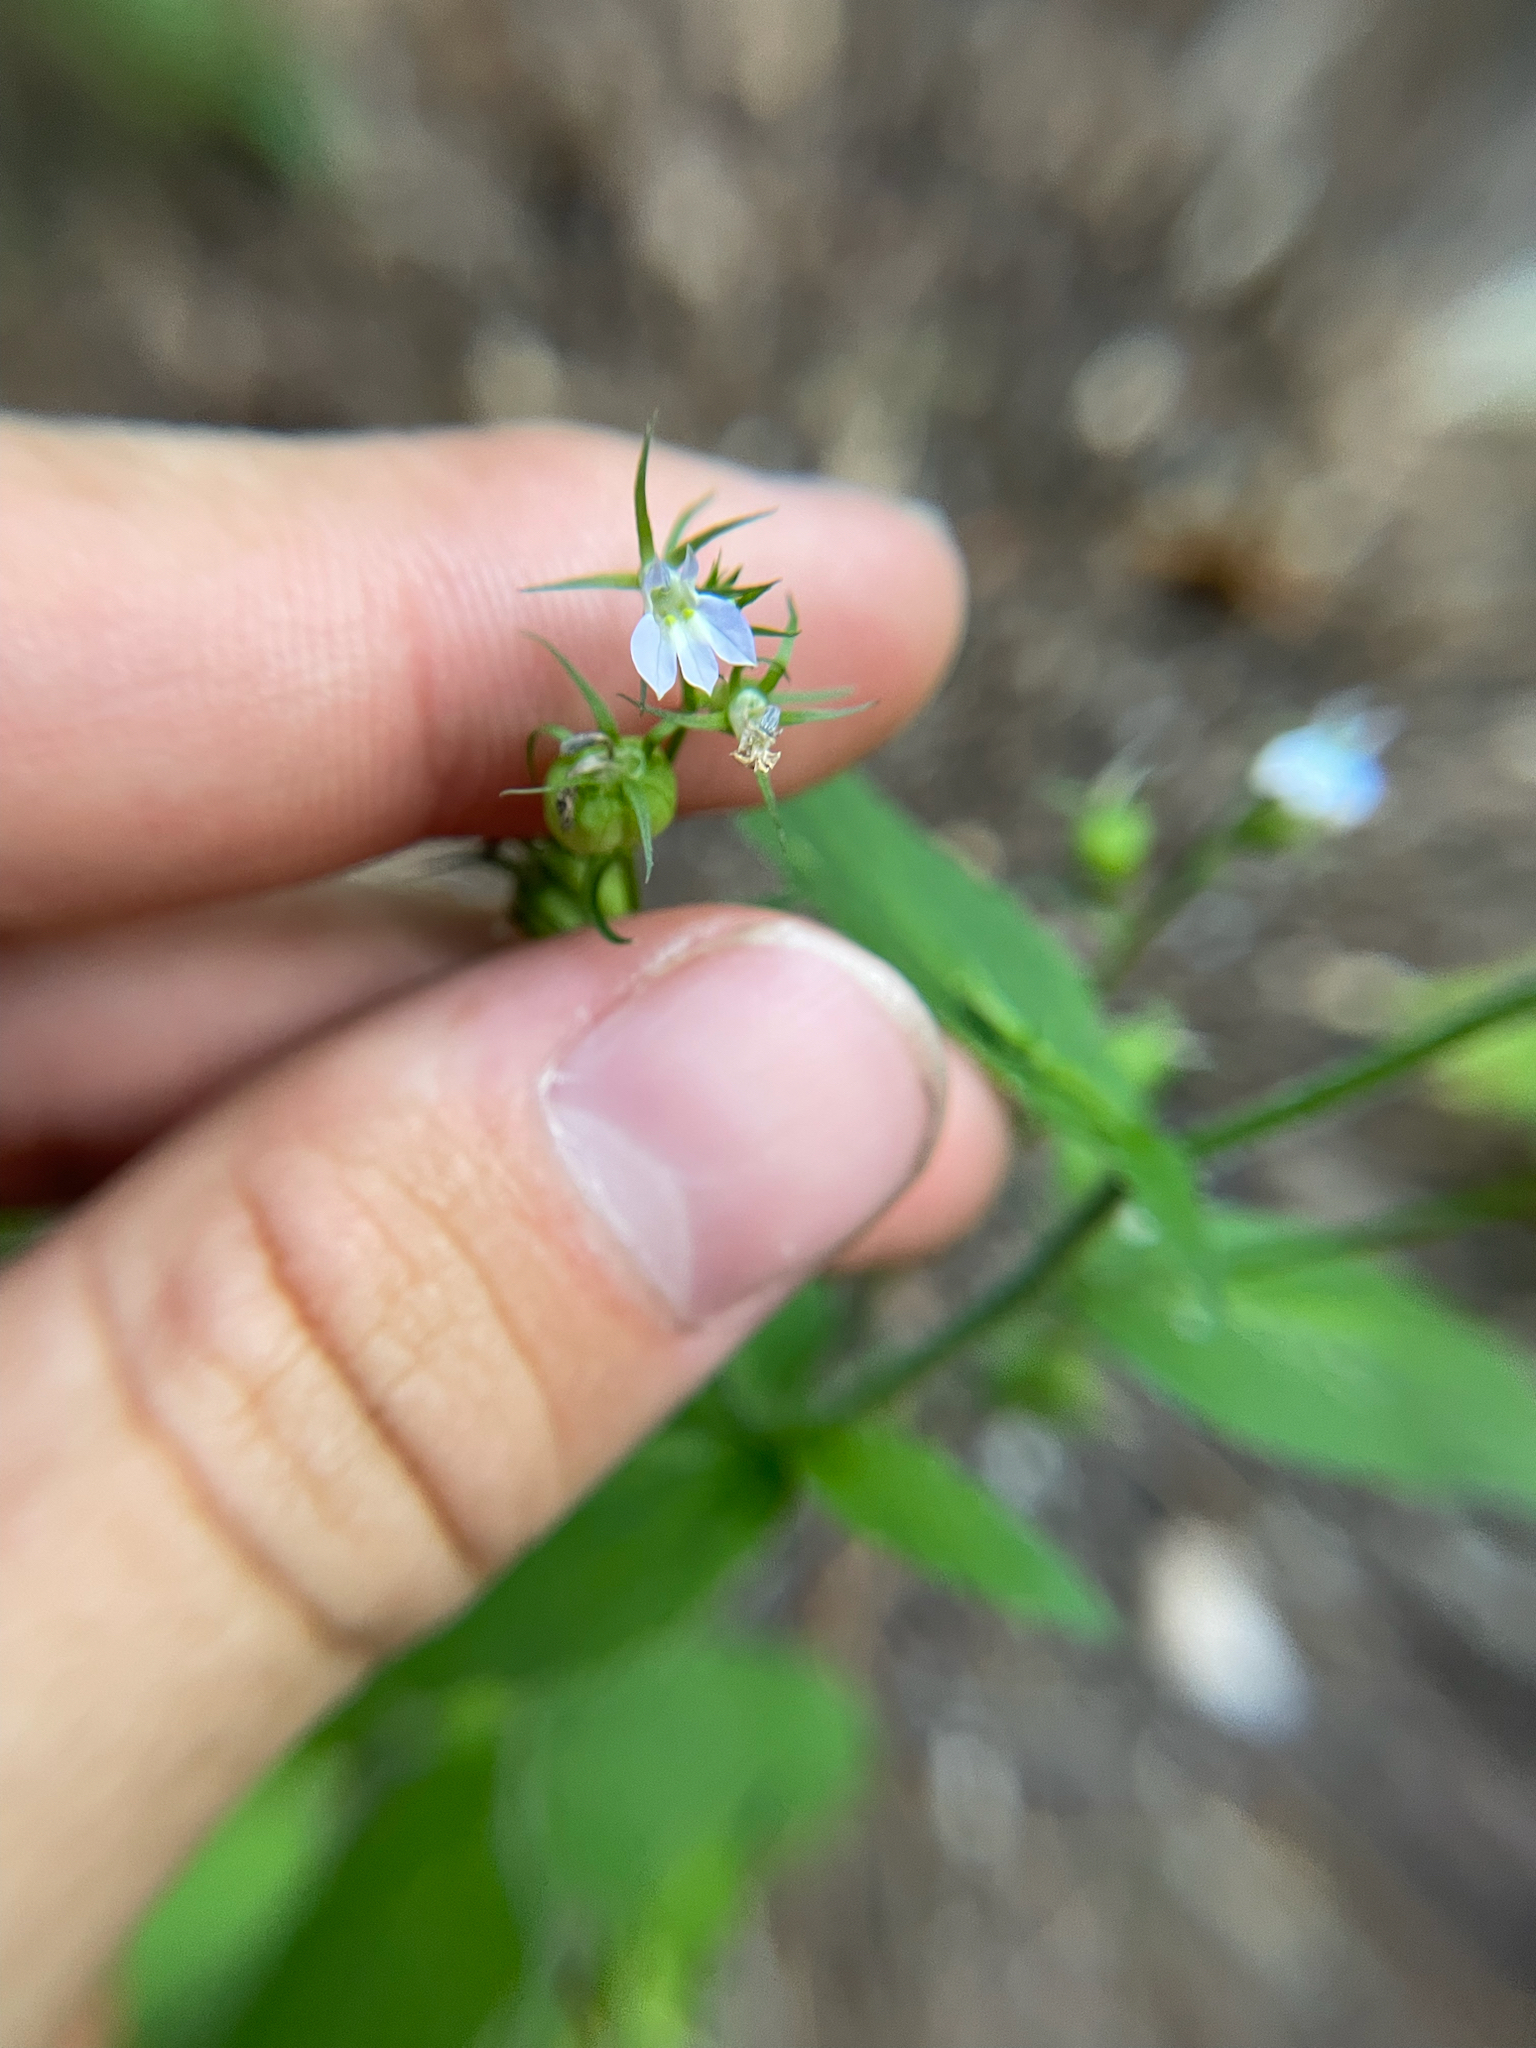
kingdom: Plantae
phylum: Tracheophyta
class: Magnoliopsida
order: Asterales
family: Campanulaceae
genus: Lobelia
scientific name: Lobelia inflata
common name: Indian tobacco
